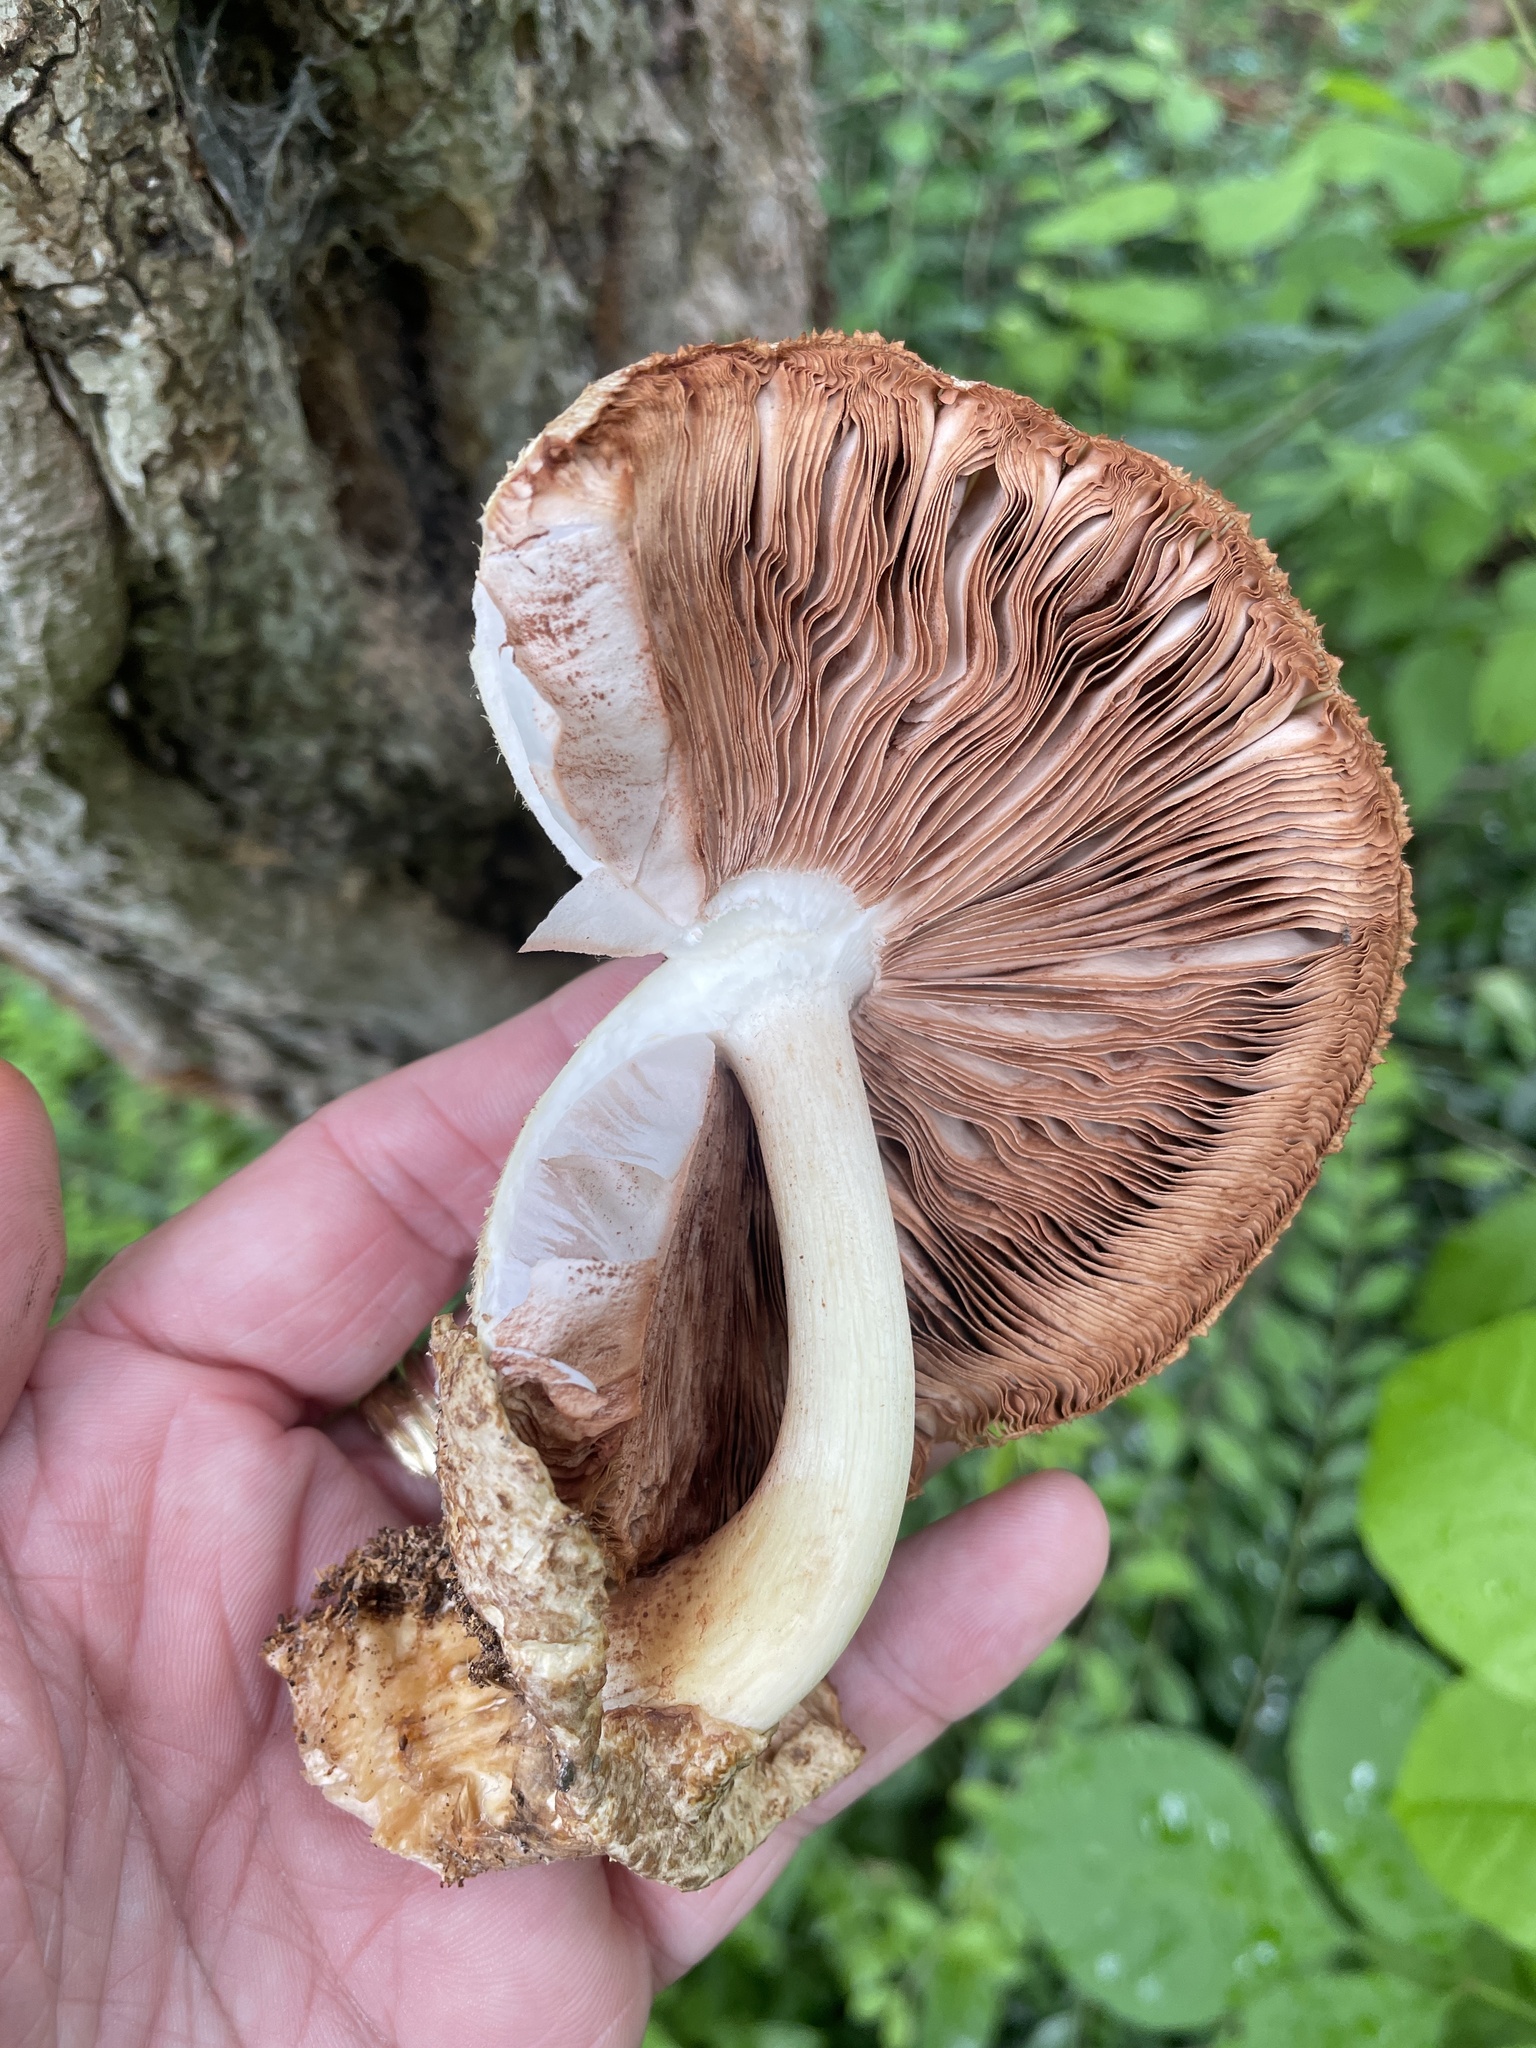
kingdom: Fungi
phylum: Basidiomycota
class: Agaricomycetes
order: Agaricales
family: Pluteaceae
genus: Volvariella
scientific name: Volvariella bombycina
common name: Silky rosegill
